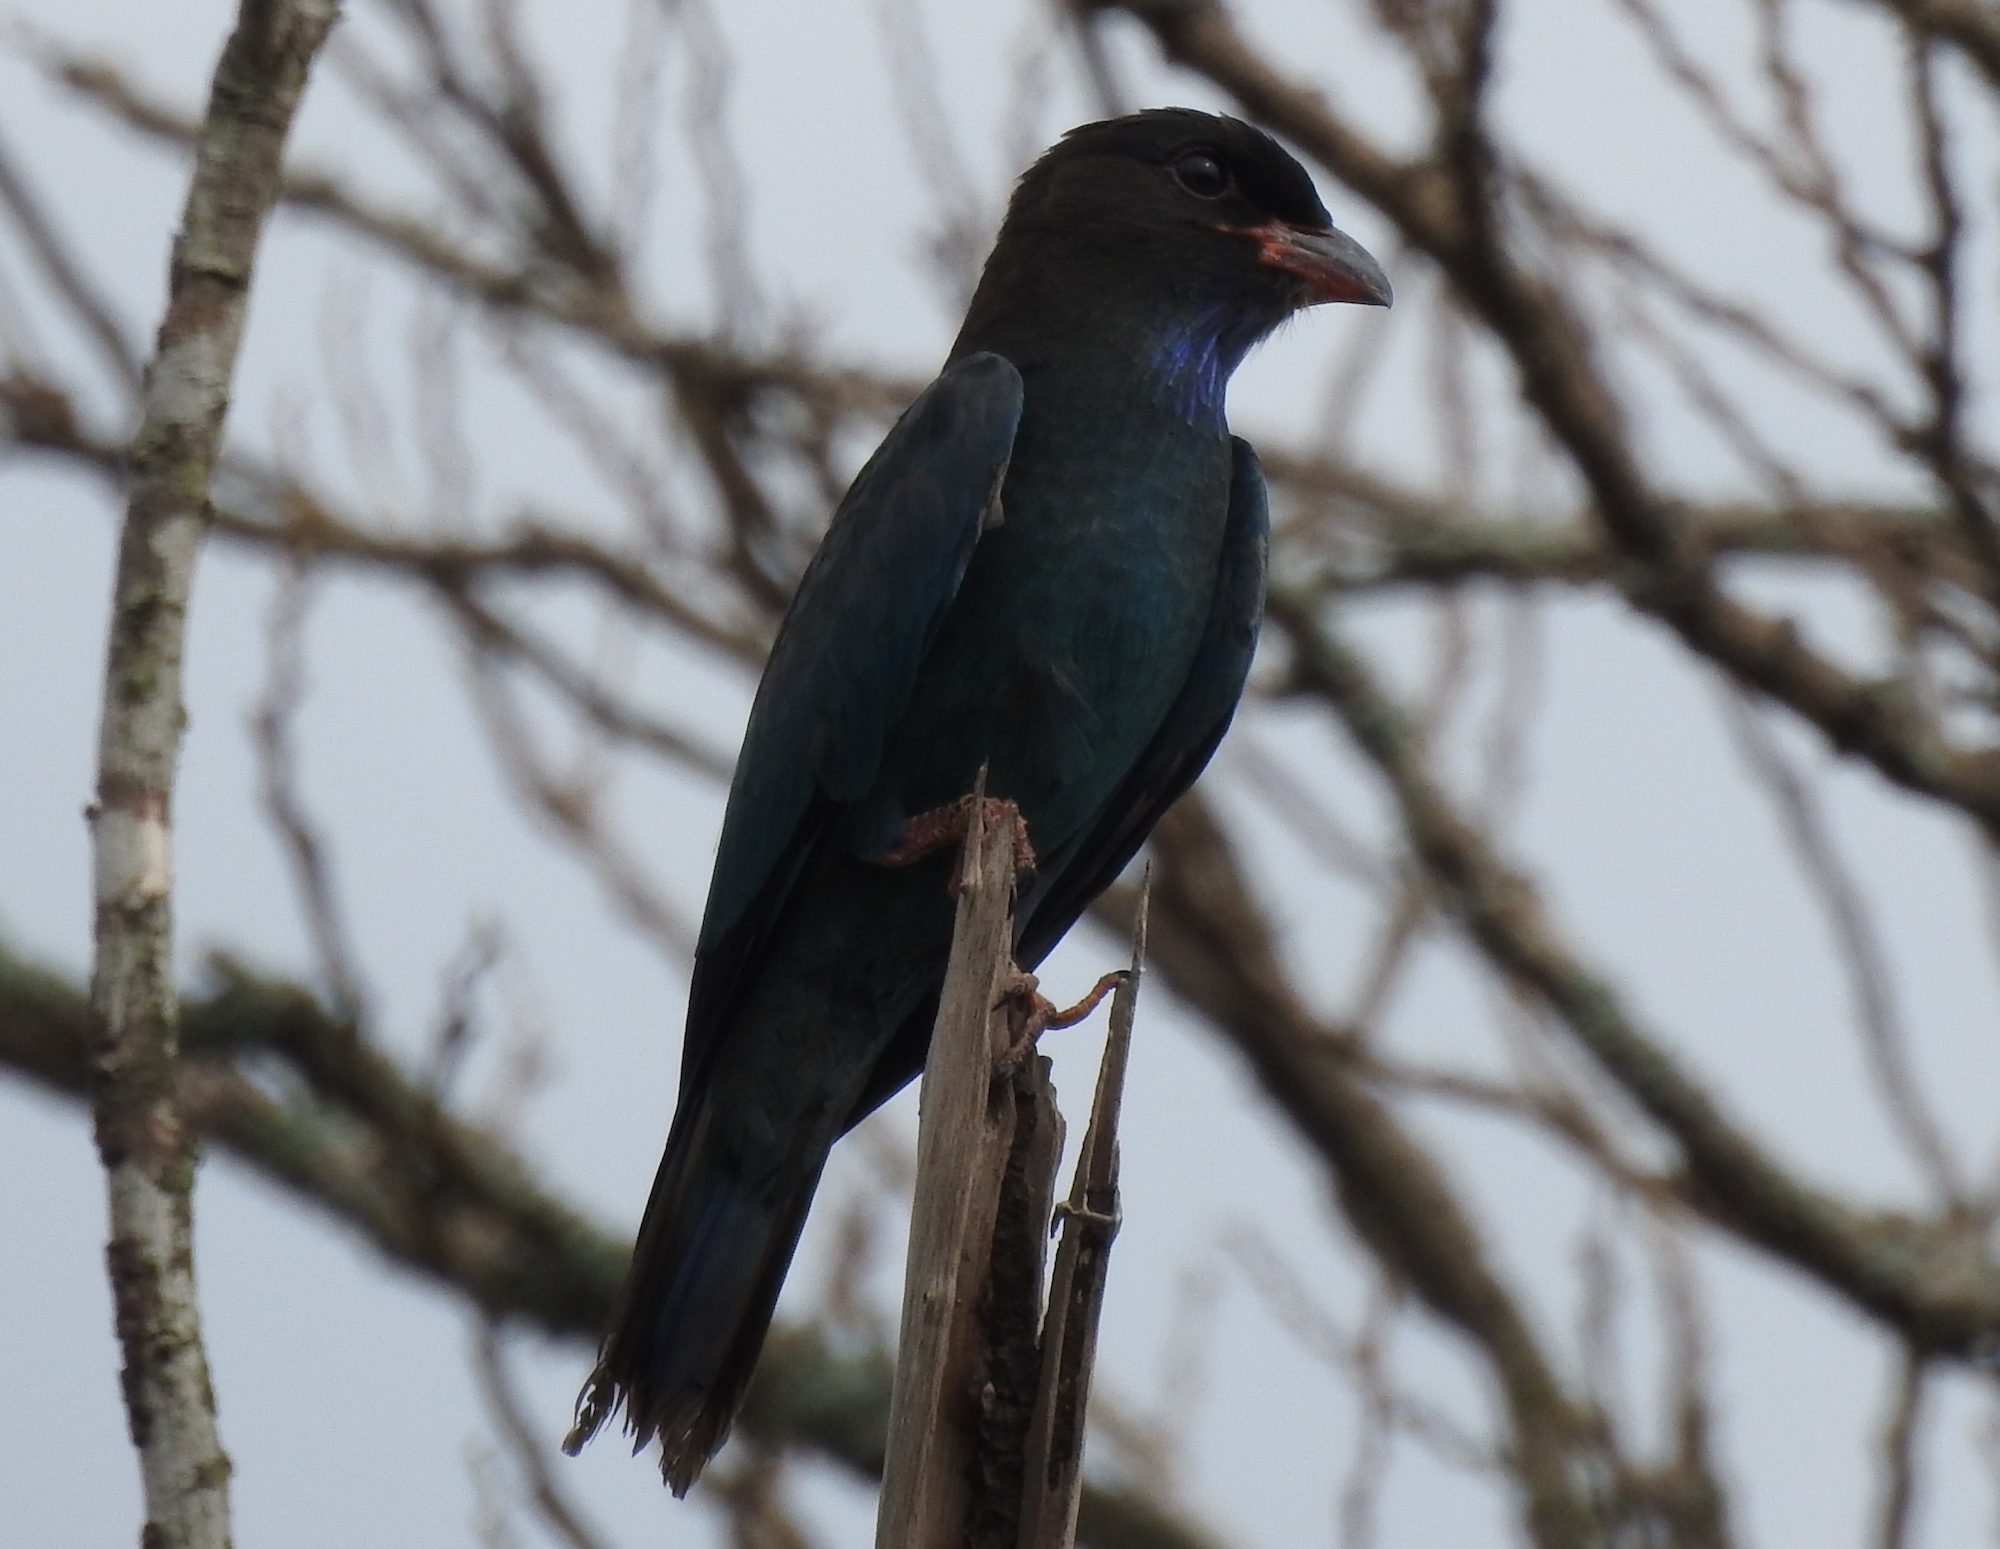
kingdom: Animalia
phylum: Chordata
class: Aves
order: Coraciiformes
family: Coraciidae
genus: Eurystomus
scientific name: Eurystomus orientalis
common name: Oriental dollarbird
